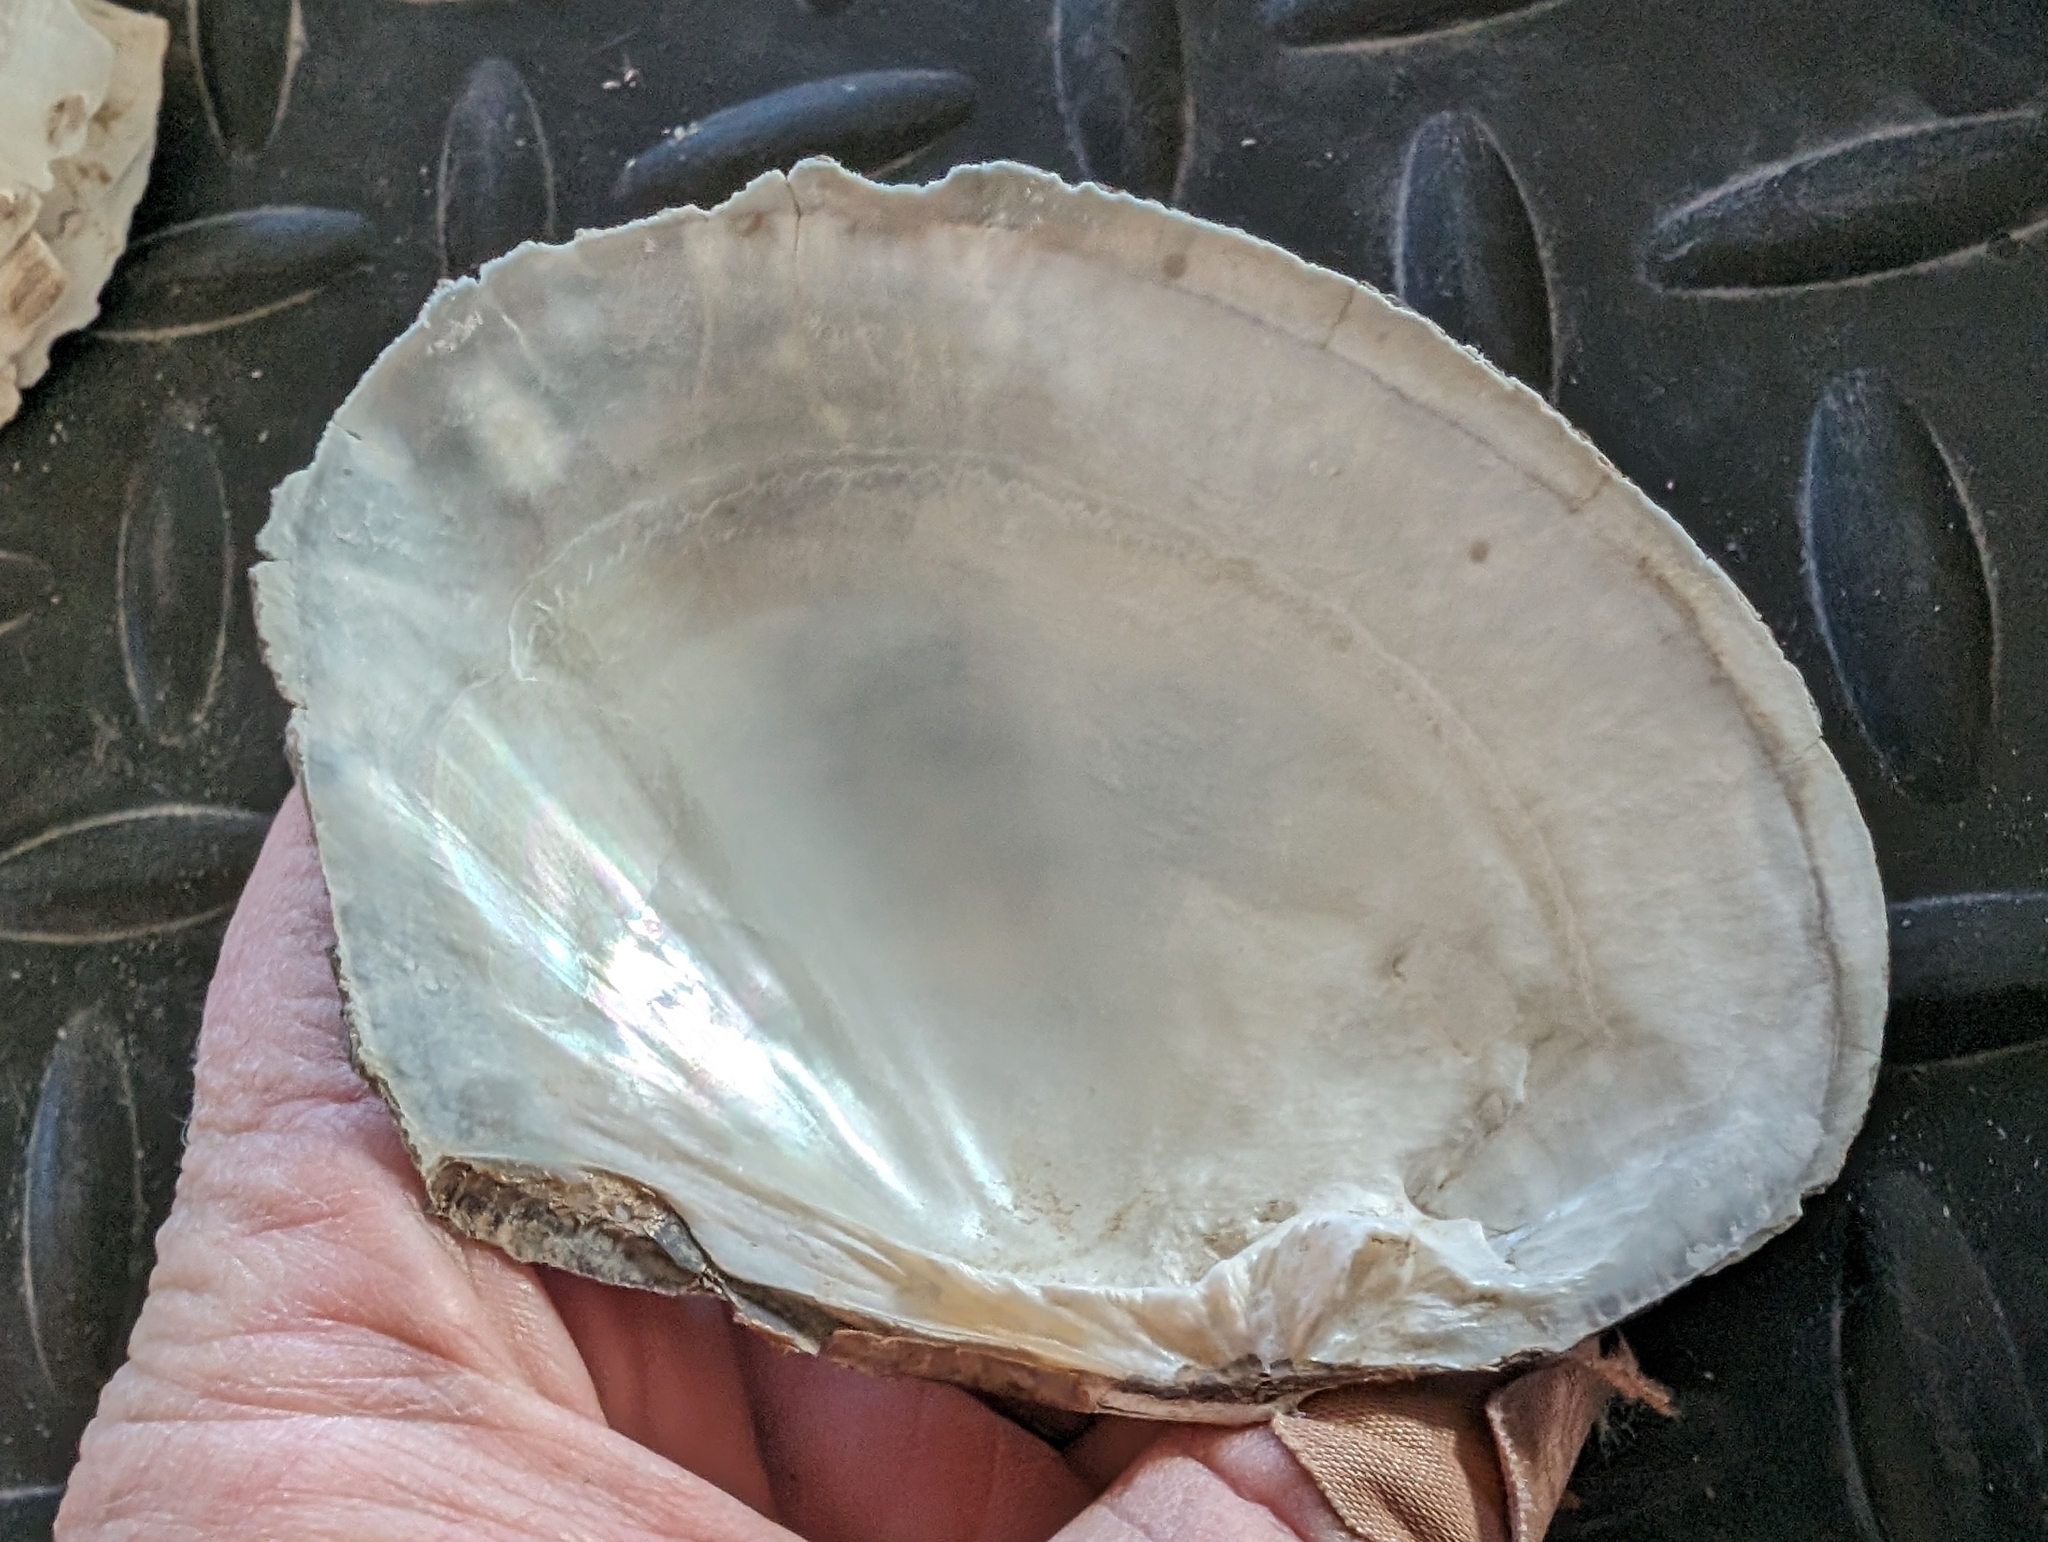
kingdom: Animalia
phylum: Mollusca
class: Bivalvia
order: Unionida
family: Unionidae
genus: Lasmigona
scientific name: Lasmigona complanata
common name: White heelsplitter
